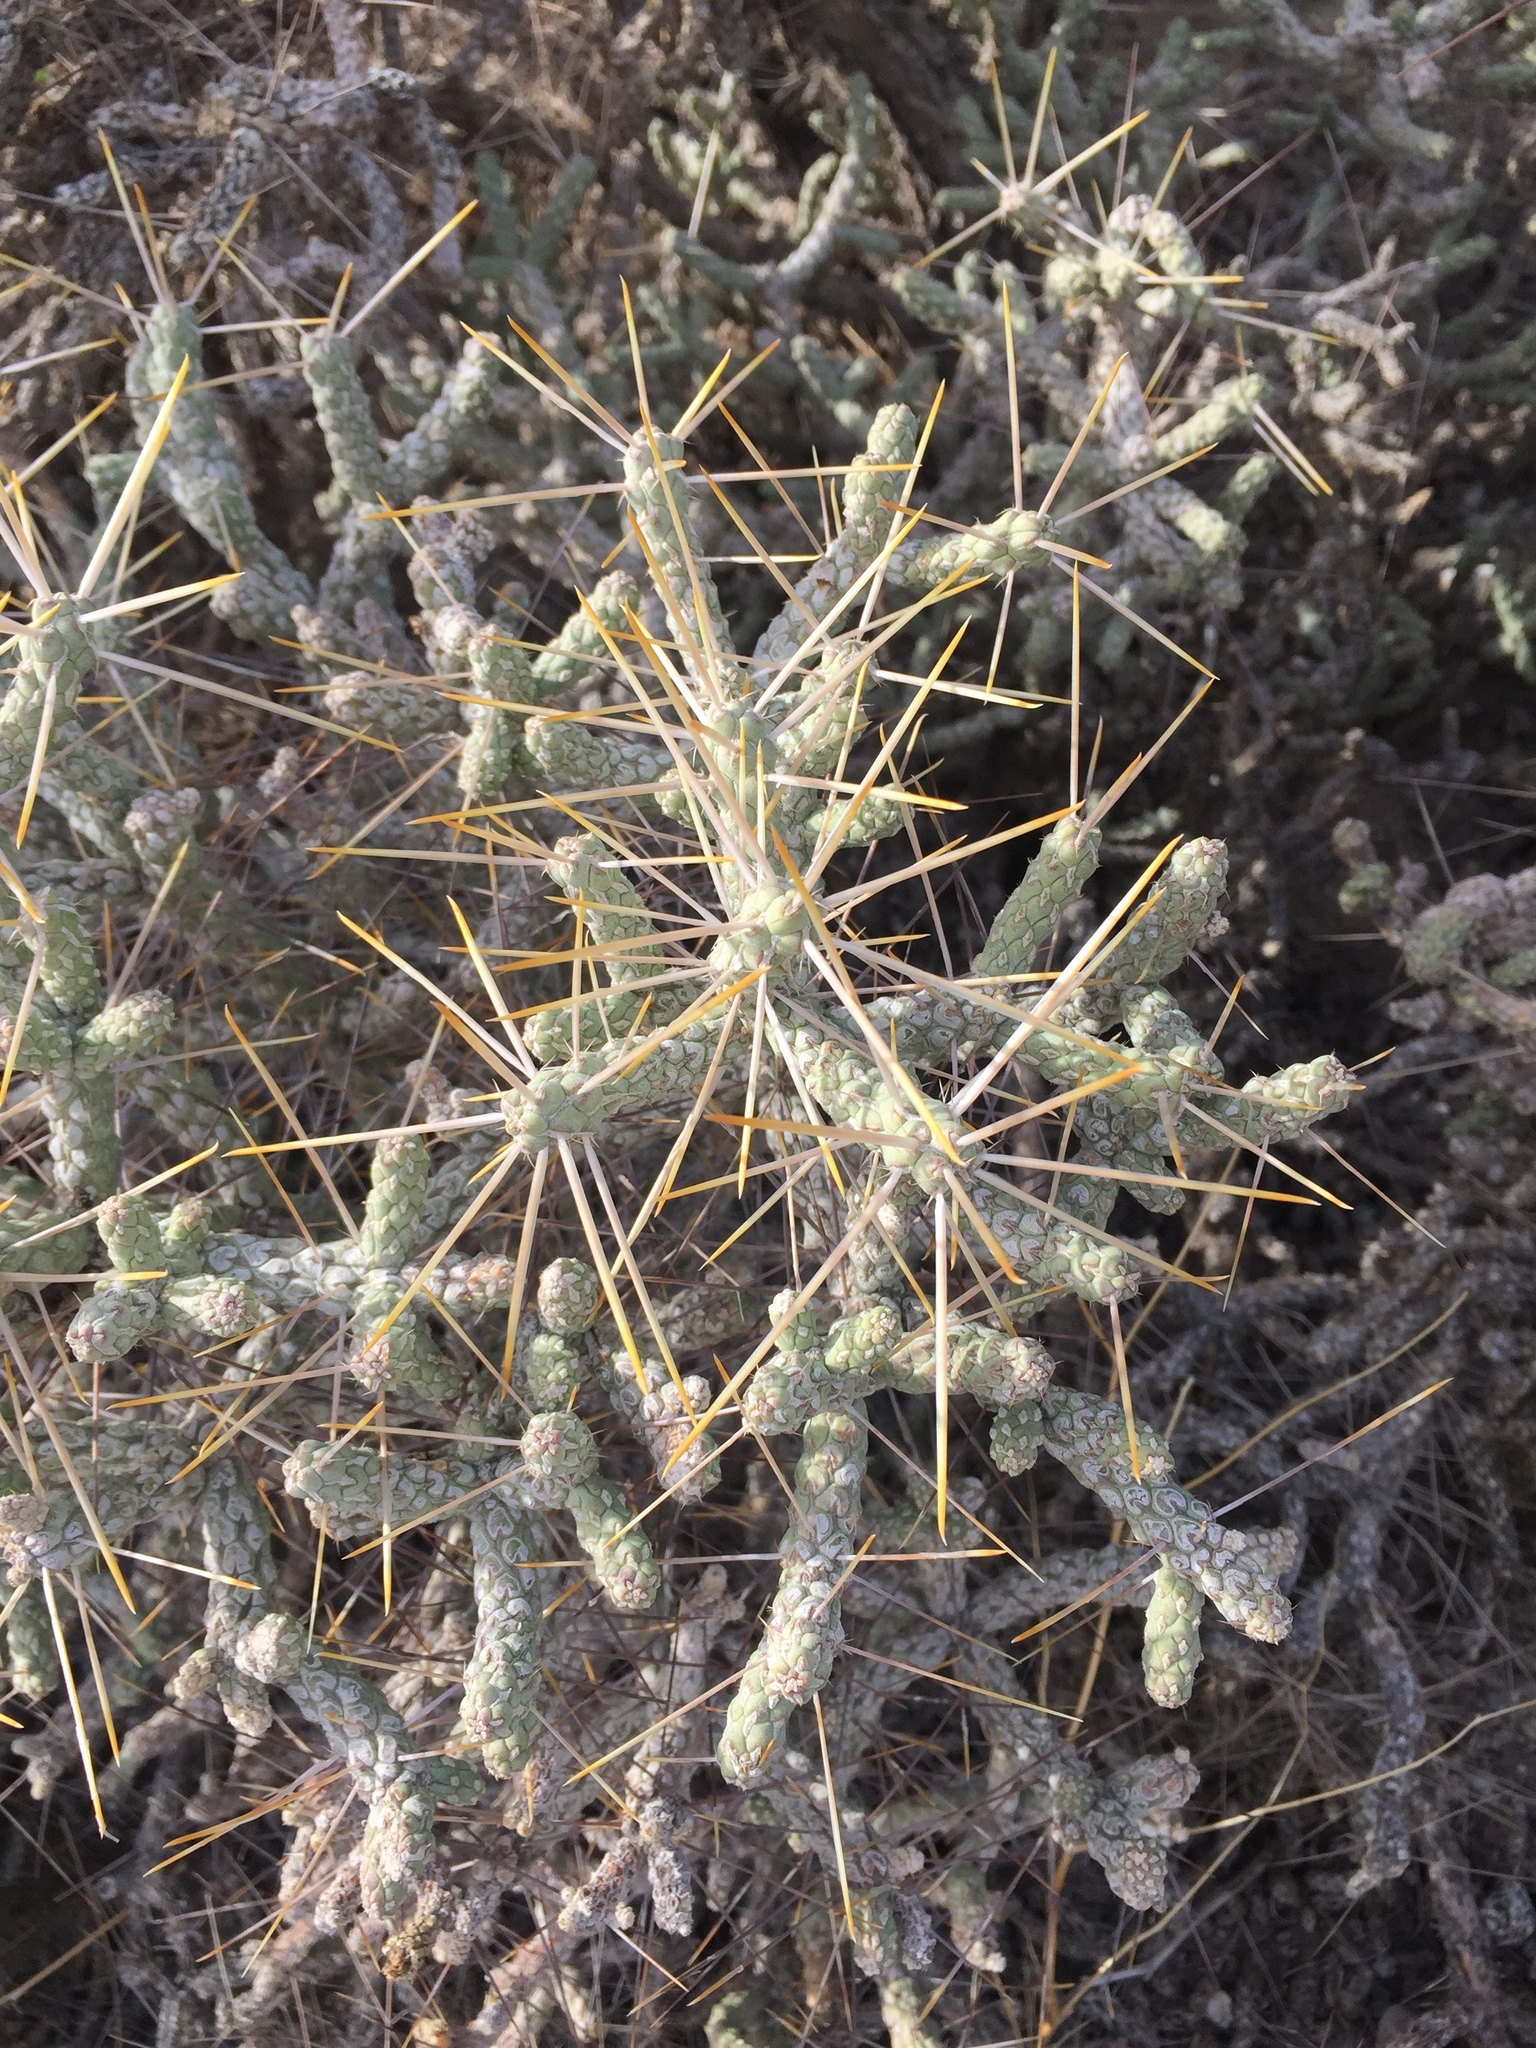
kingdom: Plantae
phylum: Tracheophyta
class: Magnoliopsida
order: Caryophyllales
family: Cactaceae
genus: Cylindropuntia
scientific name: Cylindropuntia ramosissima
